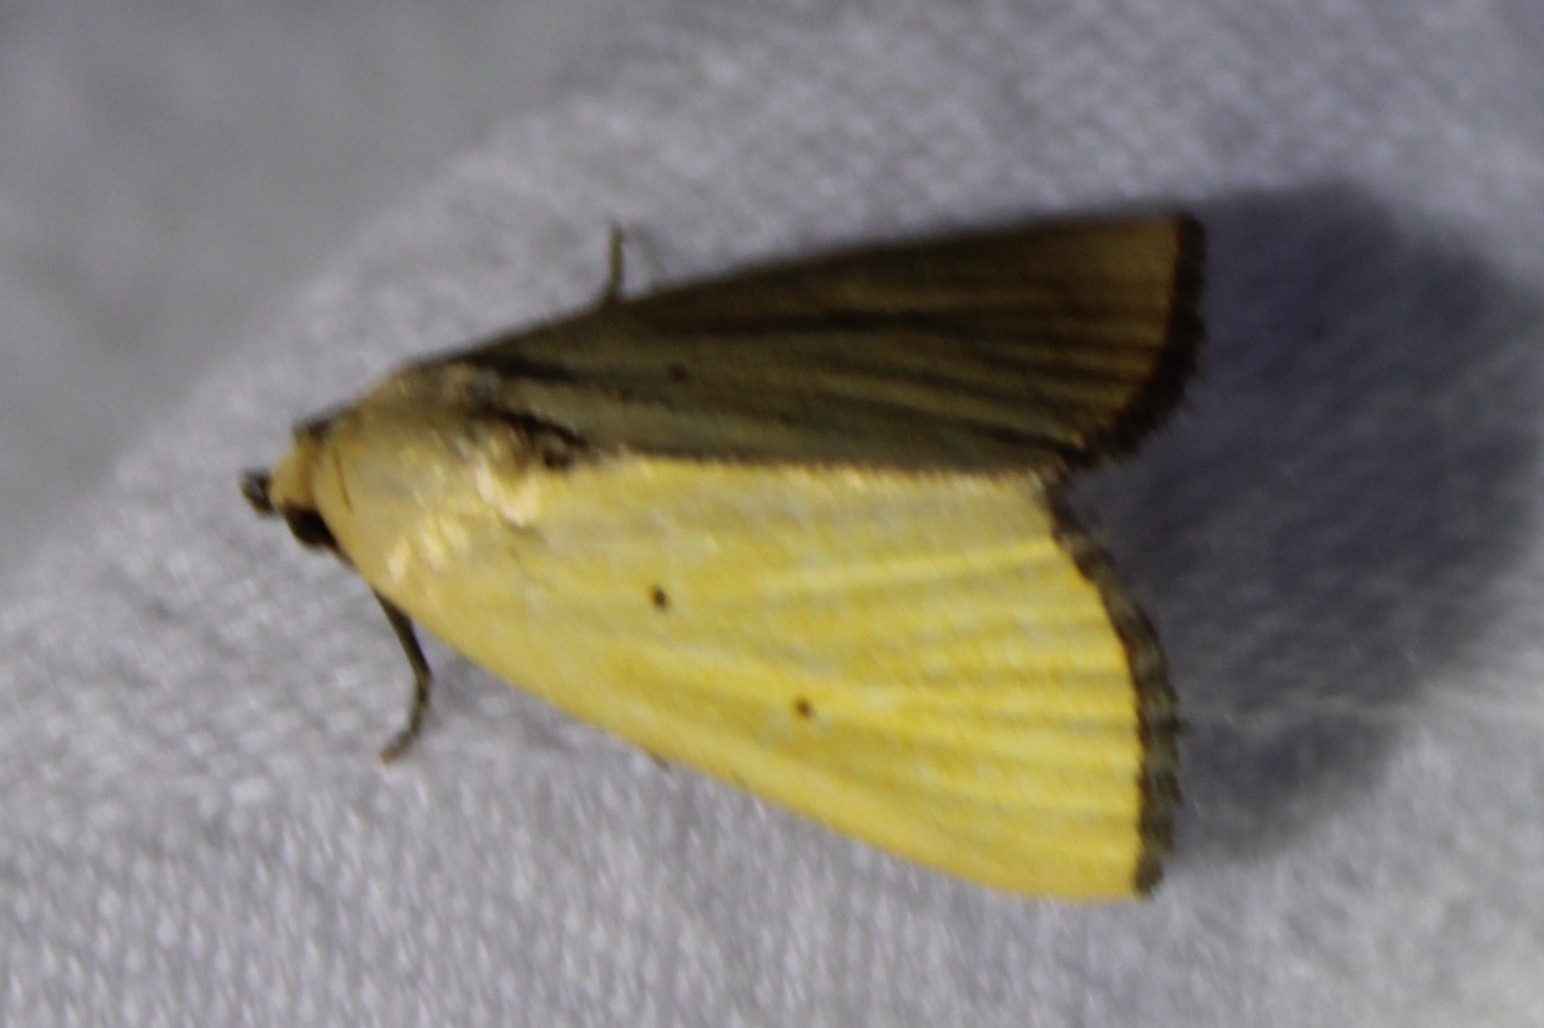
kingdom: Animalia
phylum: Arthropoda
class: Insecta
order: Lepidoptera
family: Noctuidae
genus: Marimatha
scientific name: Marimatha nigrofimbria
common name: Black-bordered lemon moth
